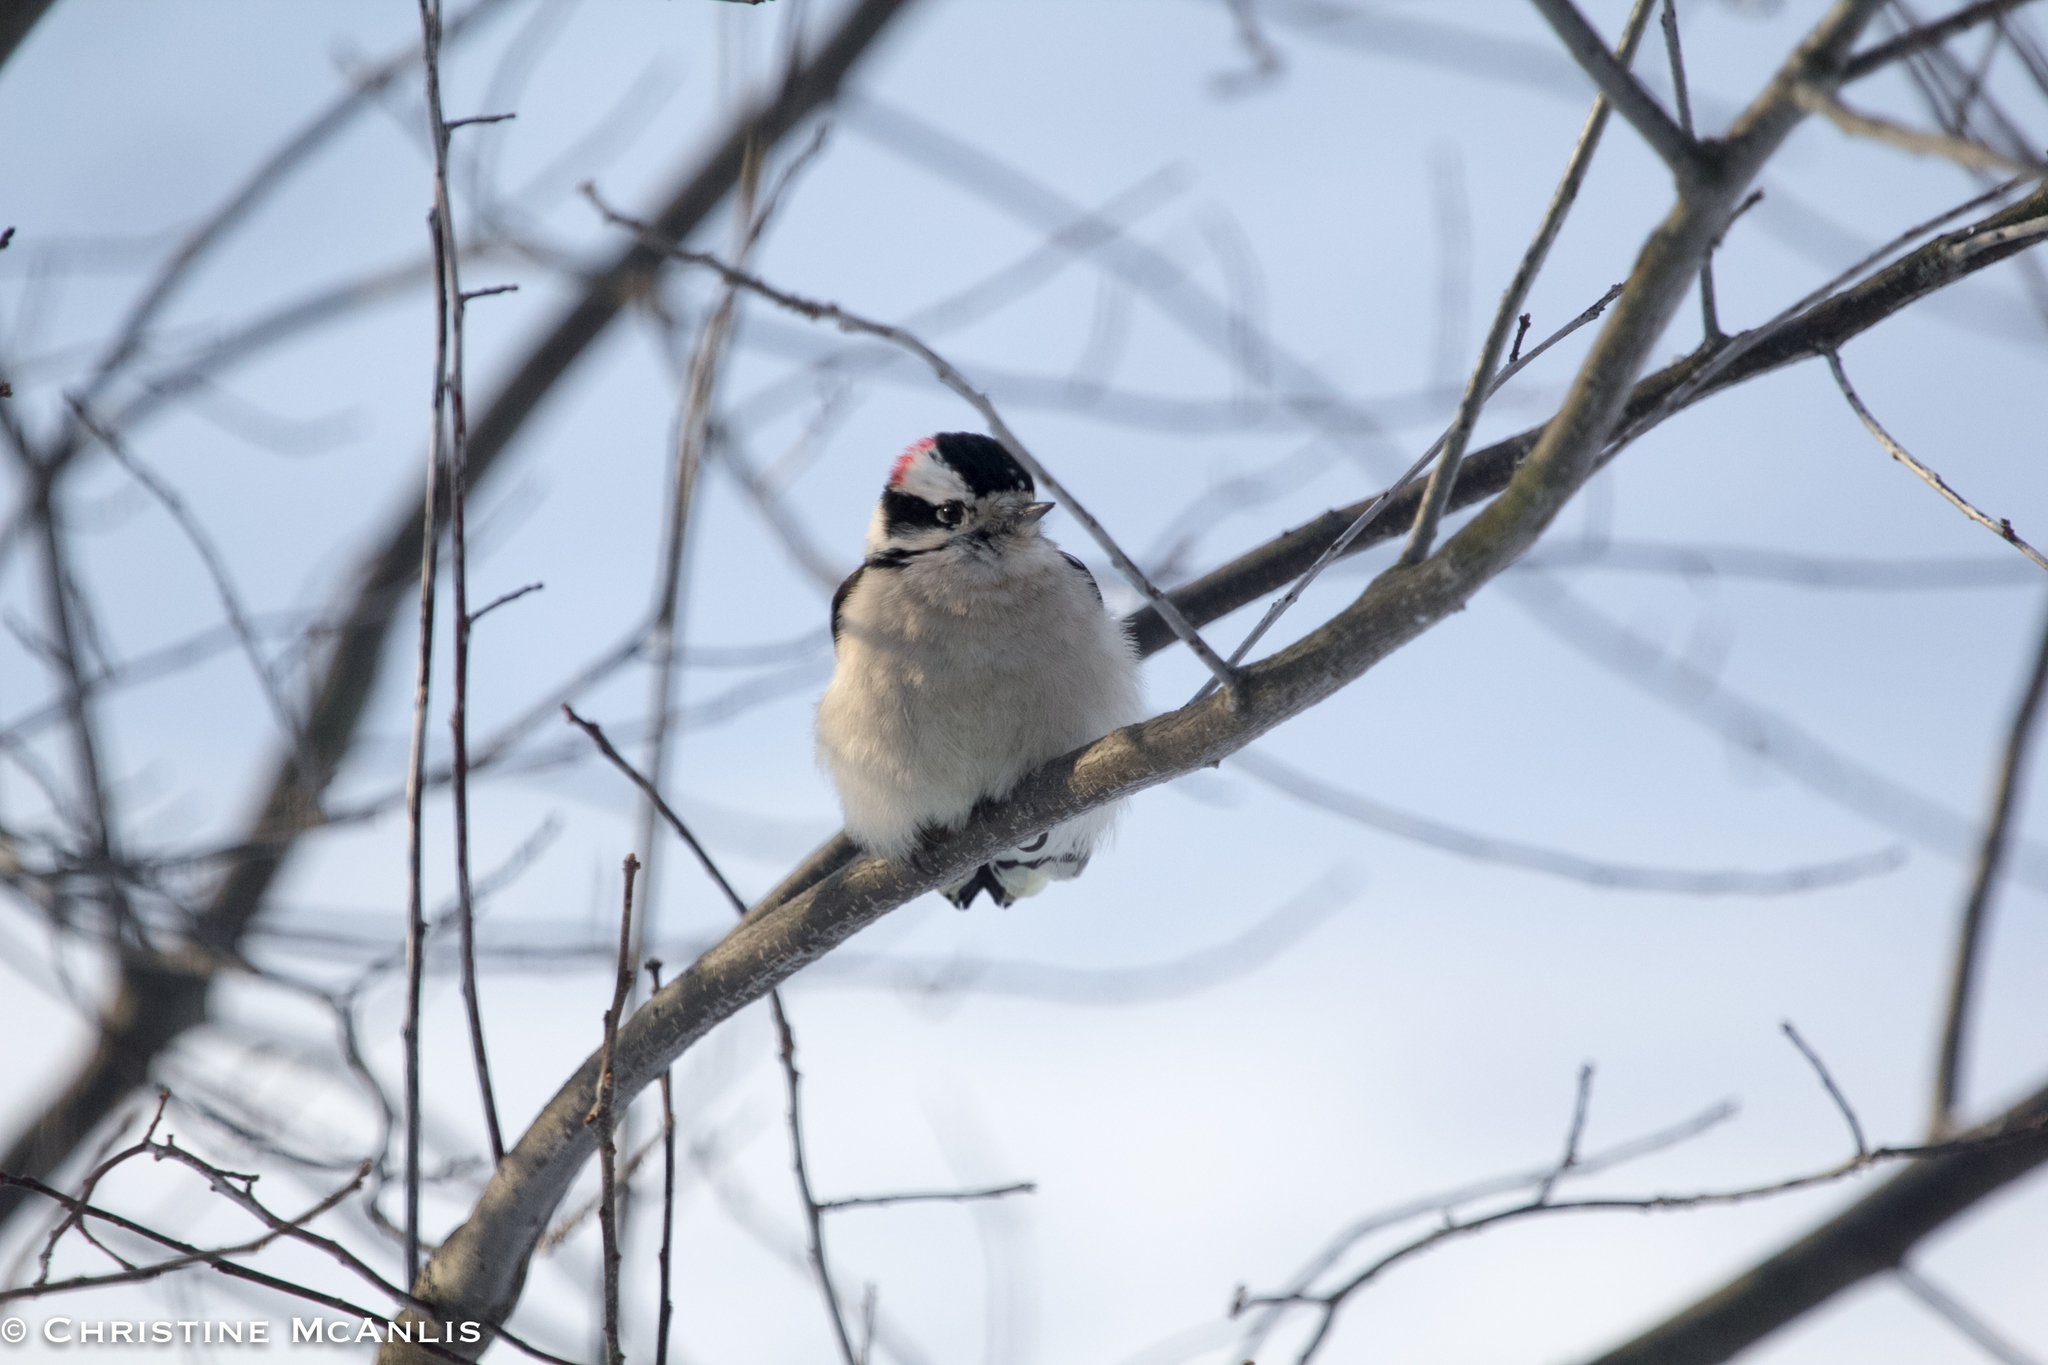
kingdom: Animalia
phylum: Chordata
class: Aves
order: Piciformes
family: Picidae
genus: Dryobates
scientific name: Dryobates pubescens
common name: Downy woodpecker
